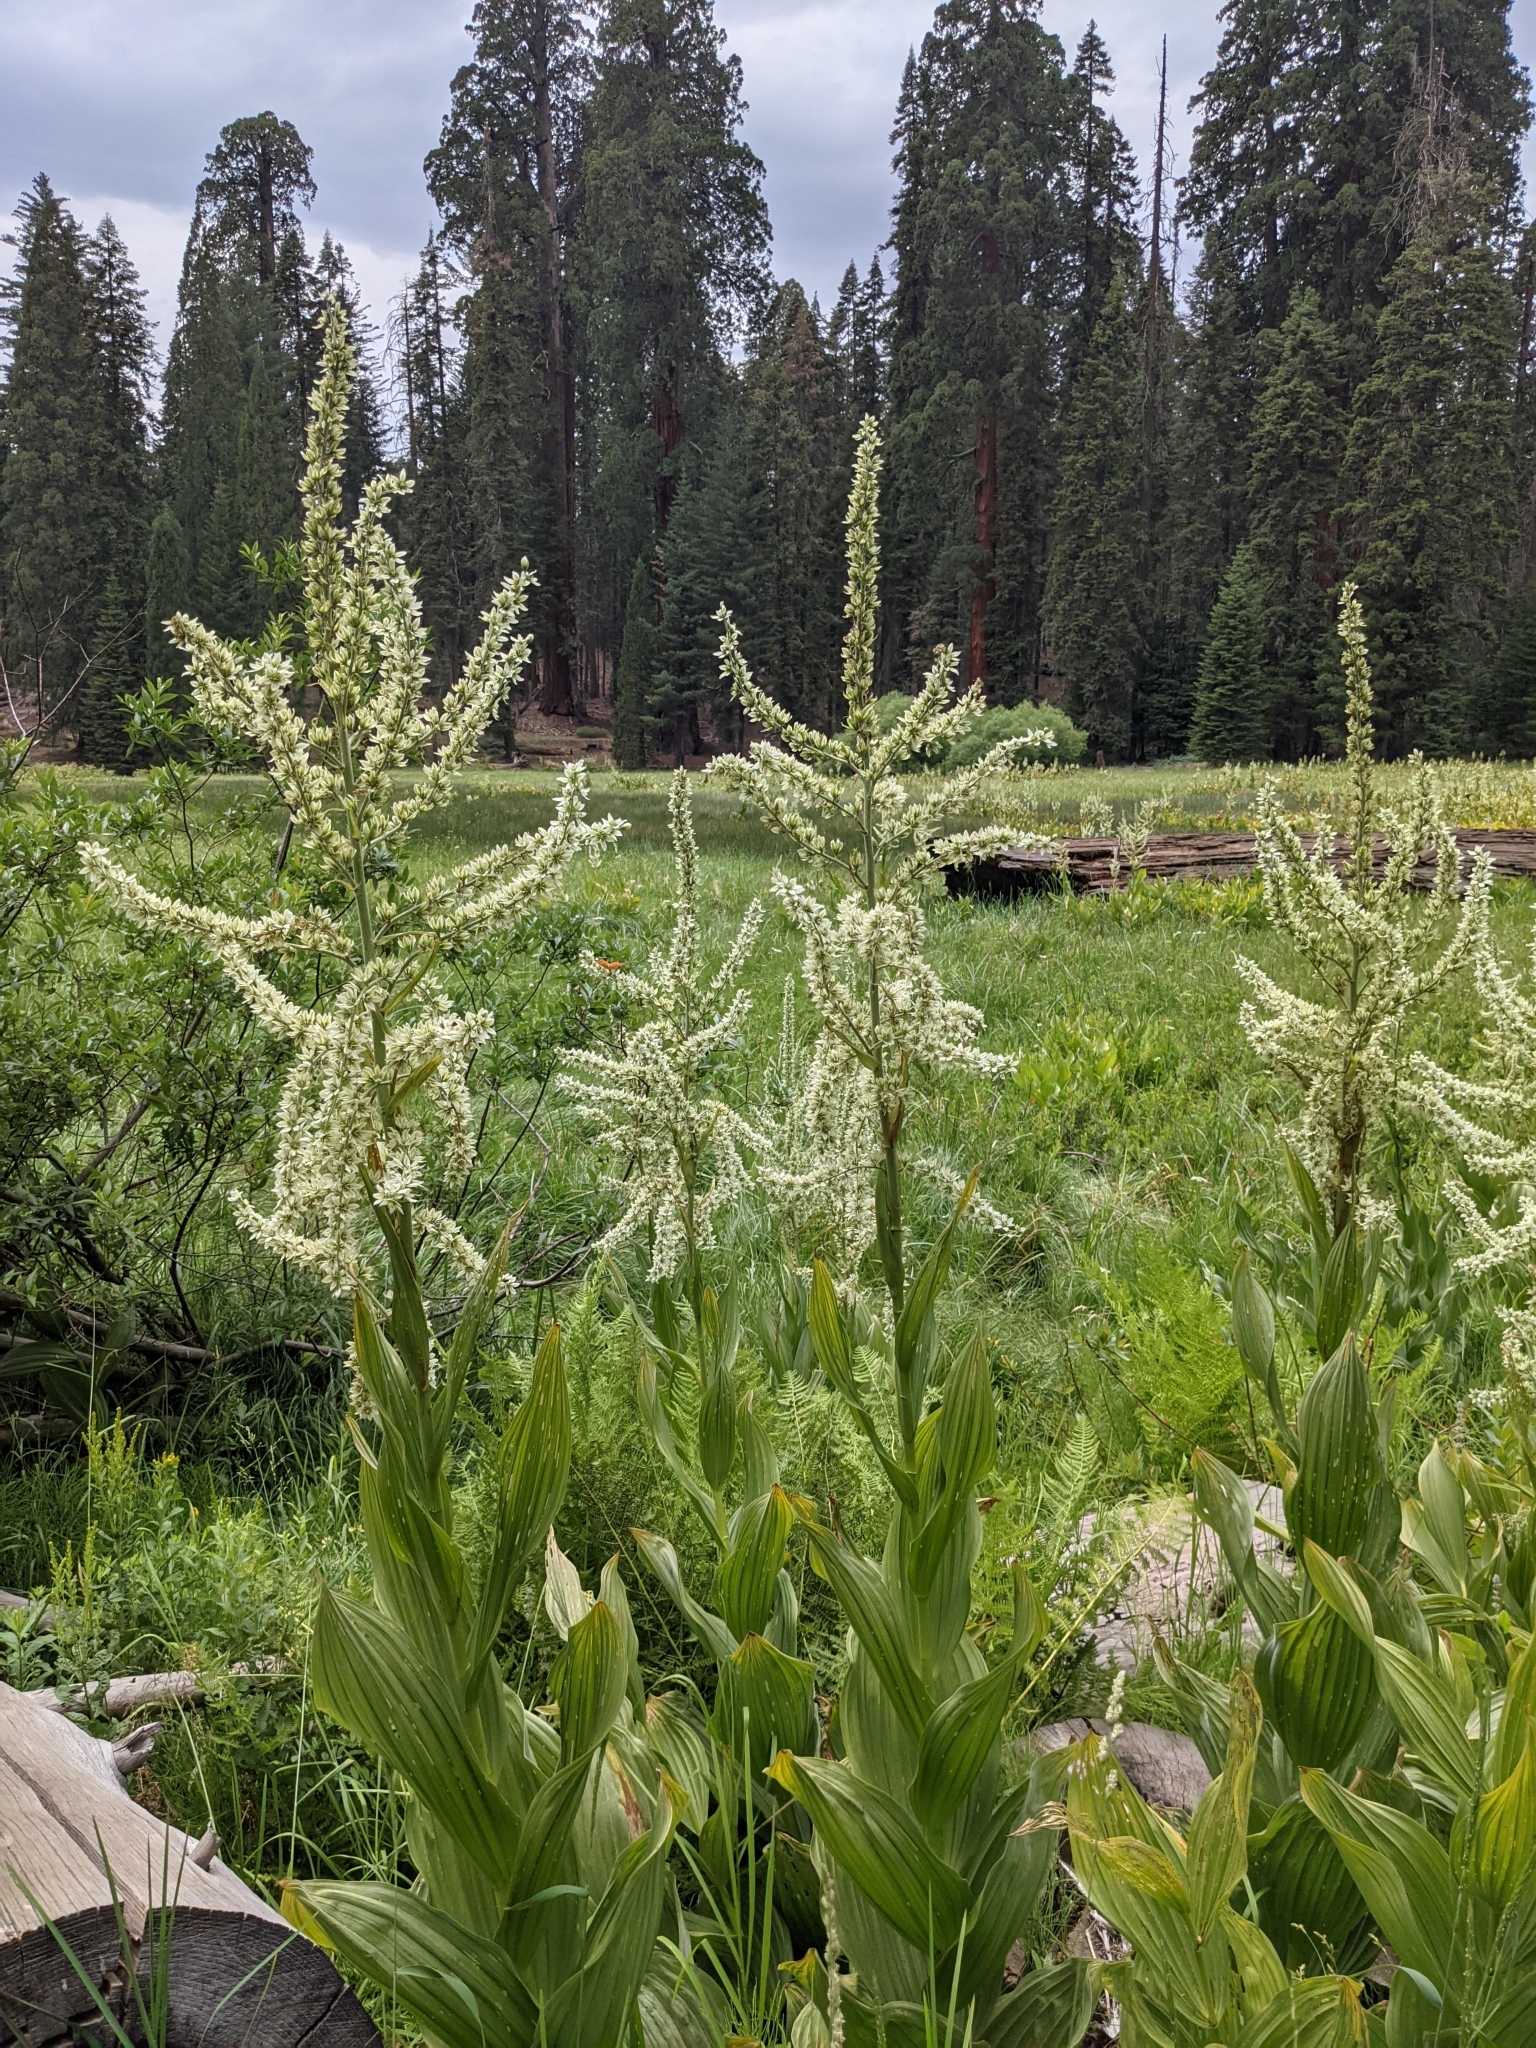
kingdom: Plantae
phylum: Tracheophyta
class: Liliopsida
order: Liliales
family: Melanthiaceae
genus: Veratrum
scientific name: Veratrum californicum
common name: California veratrum
